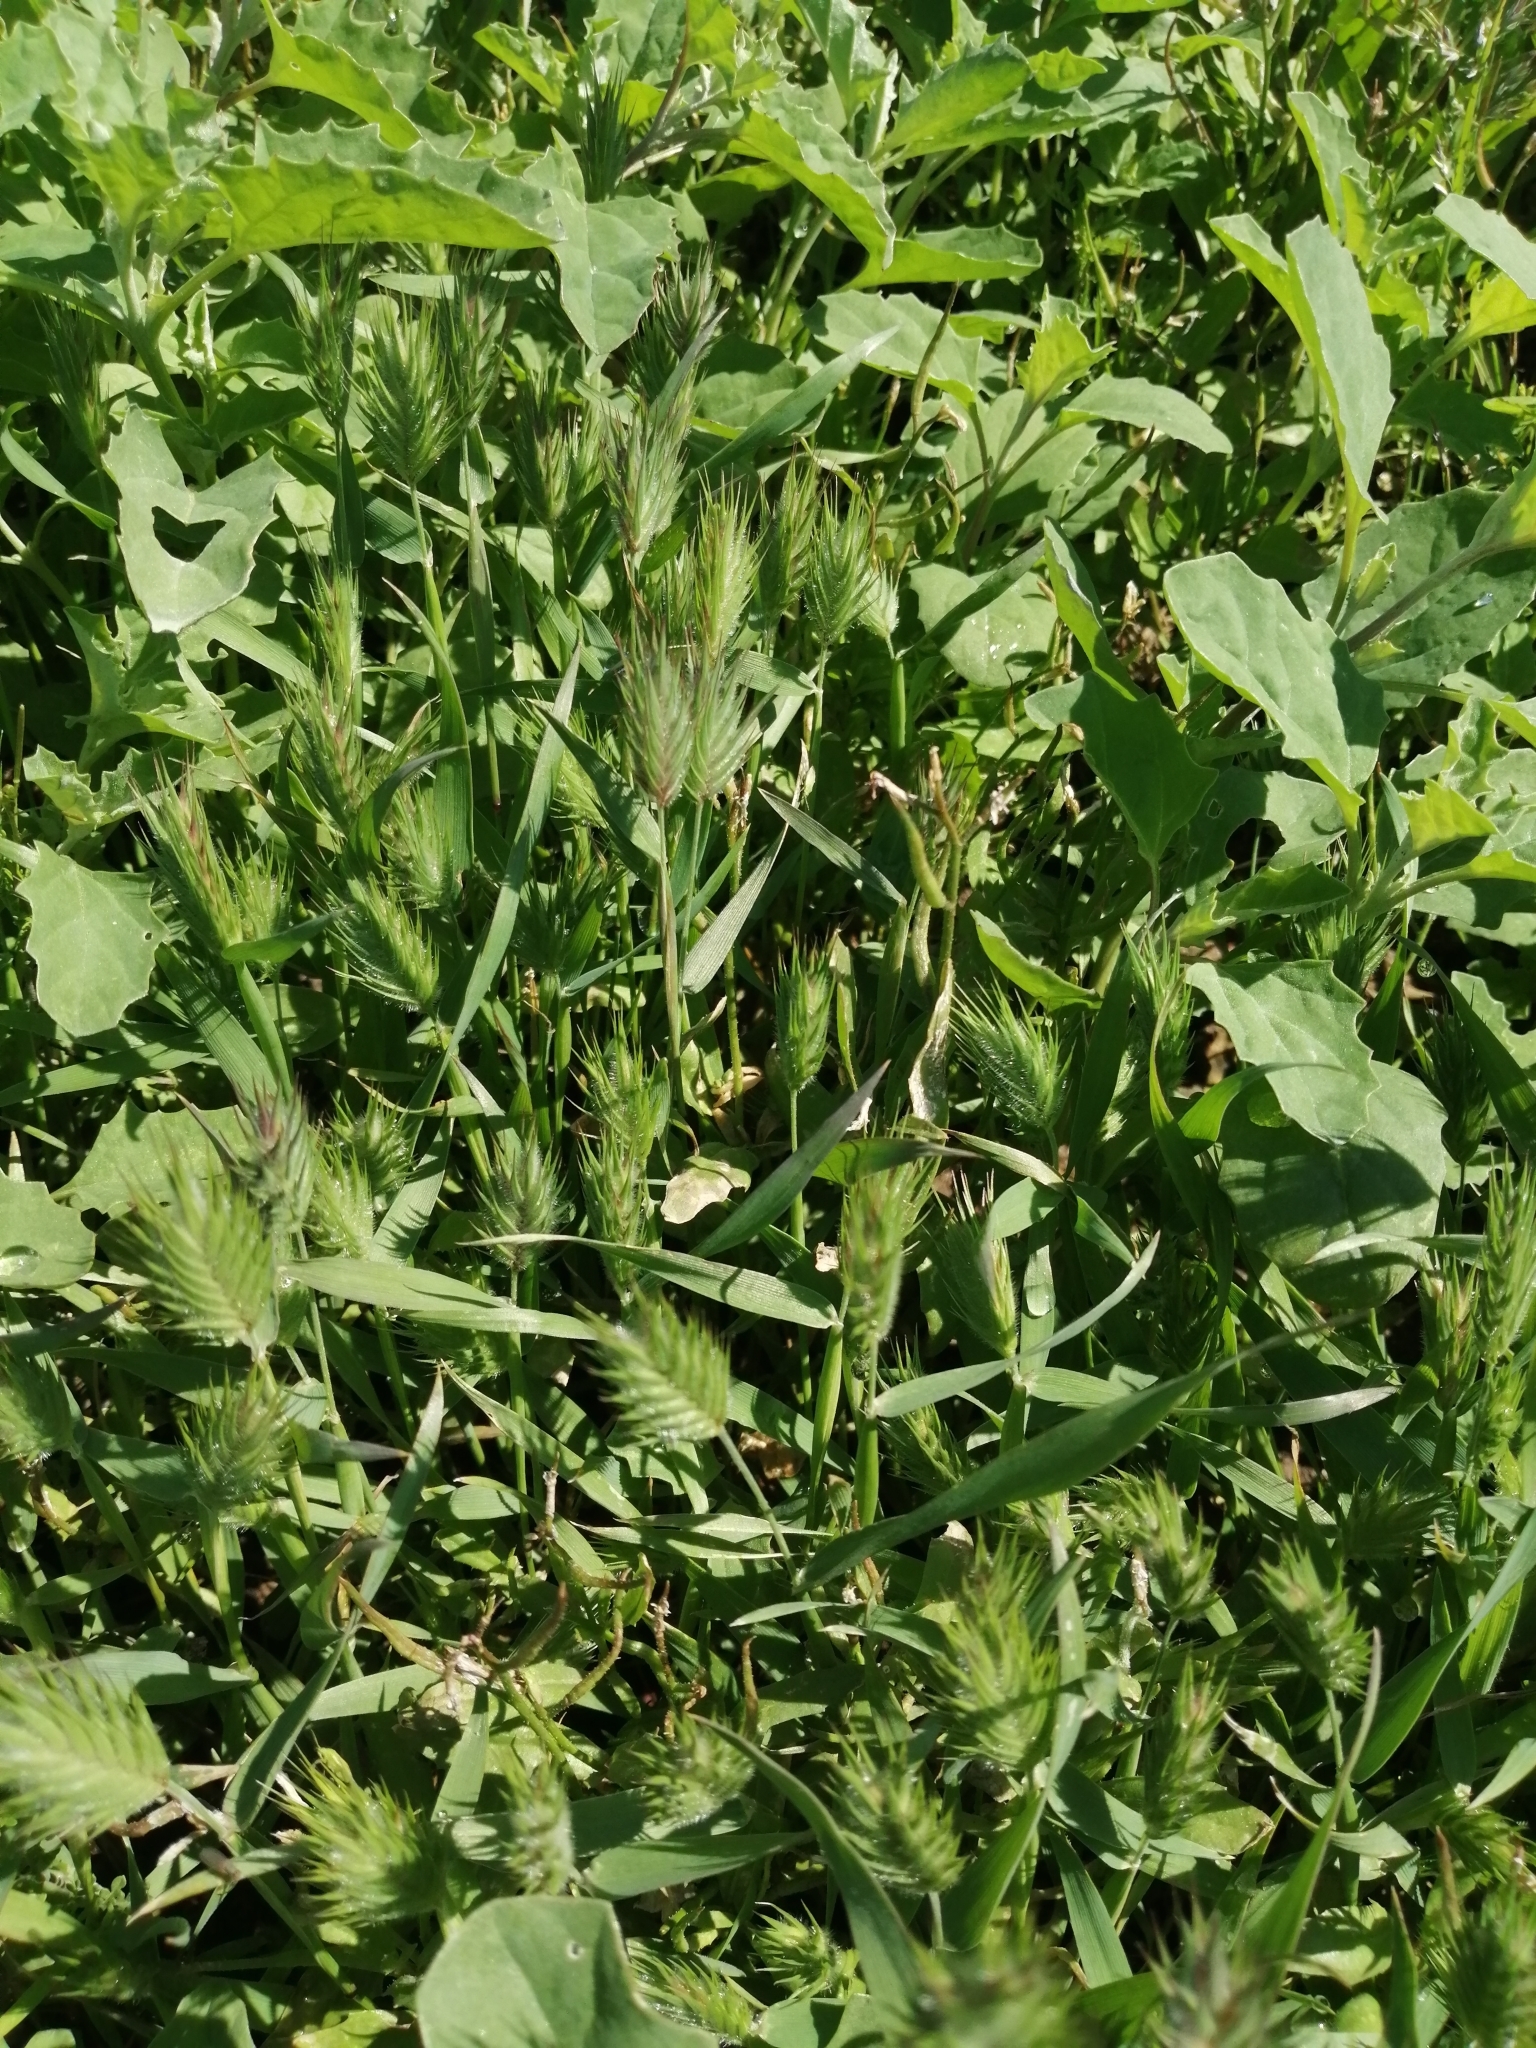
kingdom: Plantae
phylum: Tracheophyta
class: Liliopsida
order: Poales
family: Poaceae
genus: Eremopyrum
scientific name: Eremopyrum triticeum
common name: Annual wheatgrass
